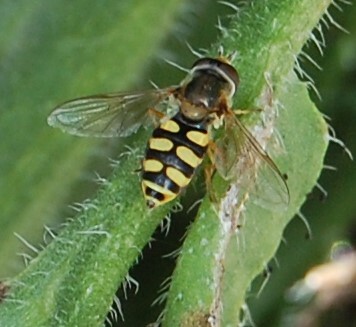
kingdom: Animalia
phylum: Arthropoda
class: Insecta
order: Diptera
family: Syrphidae
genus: Eupeodes
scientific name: Eupeodes corollae
